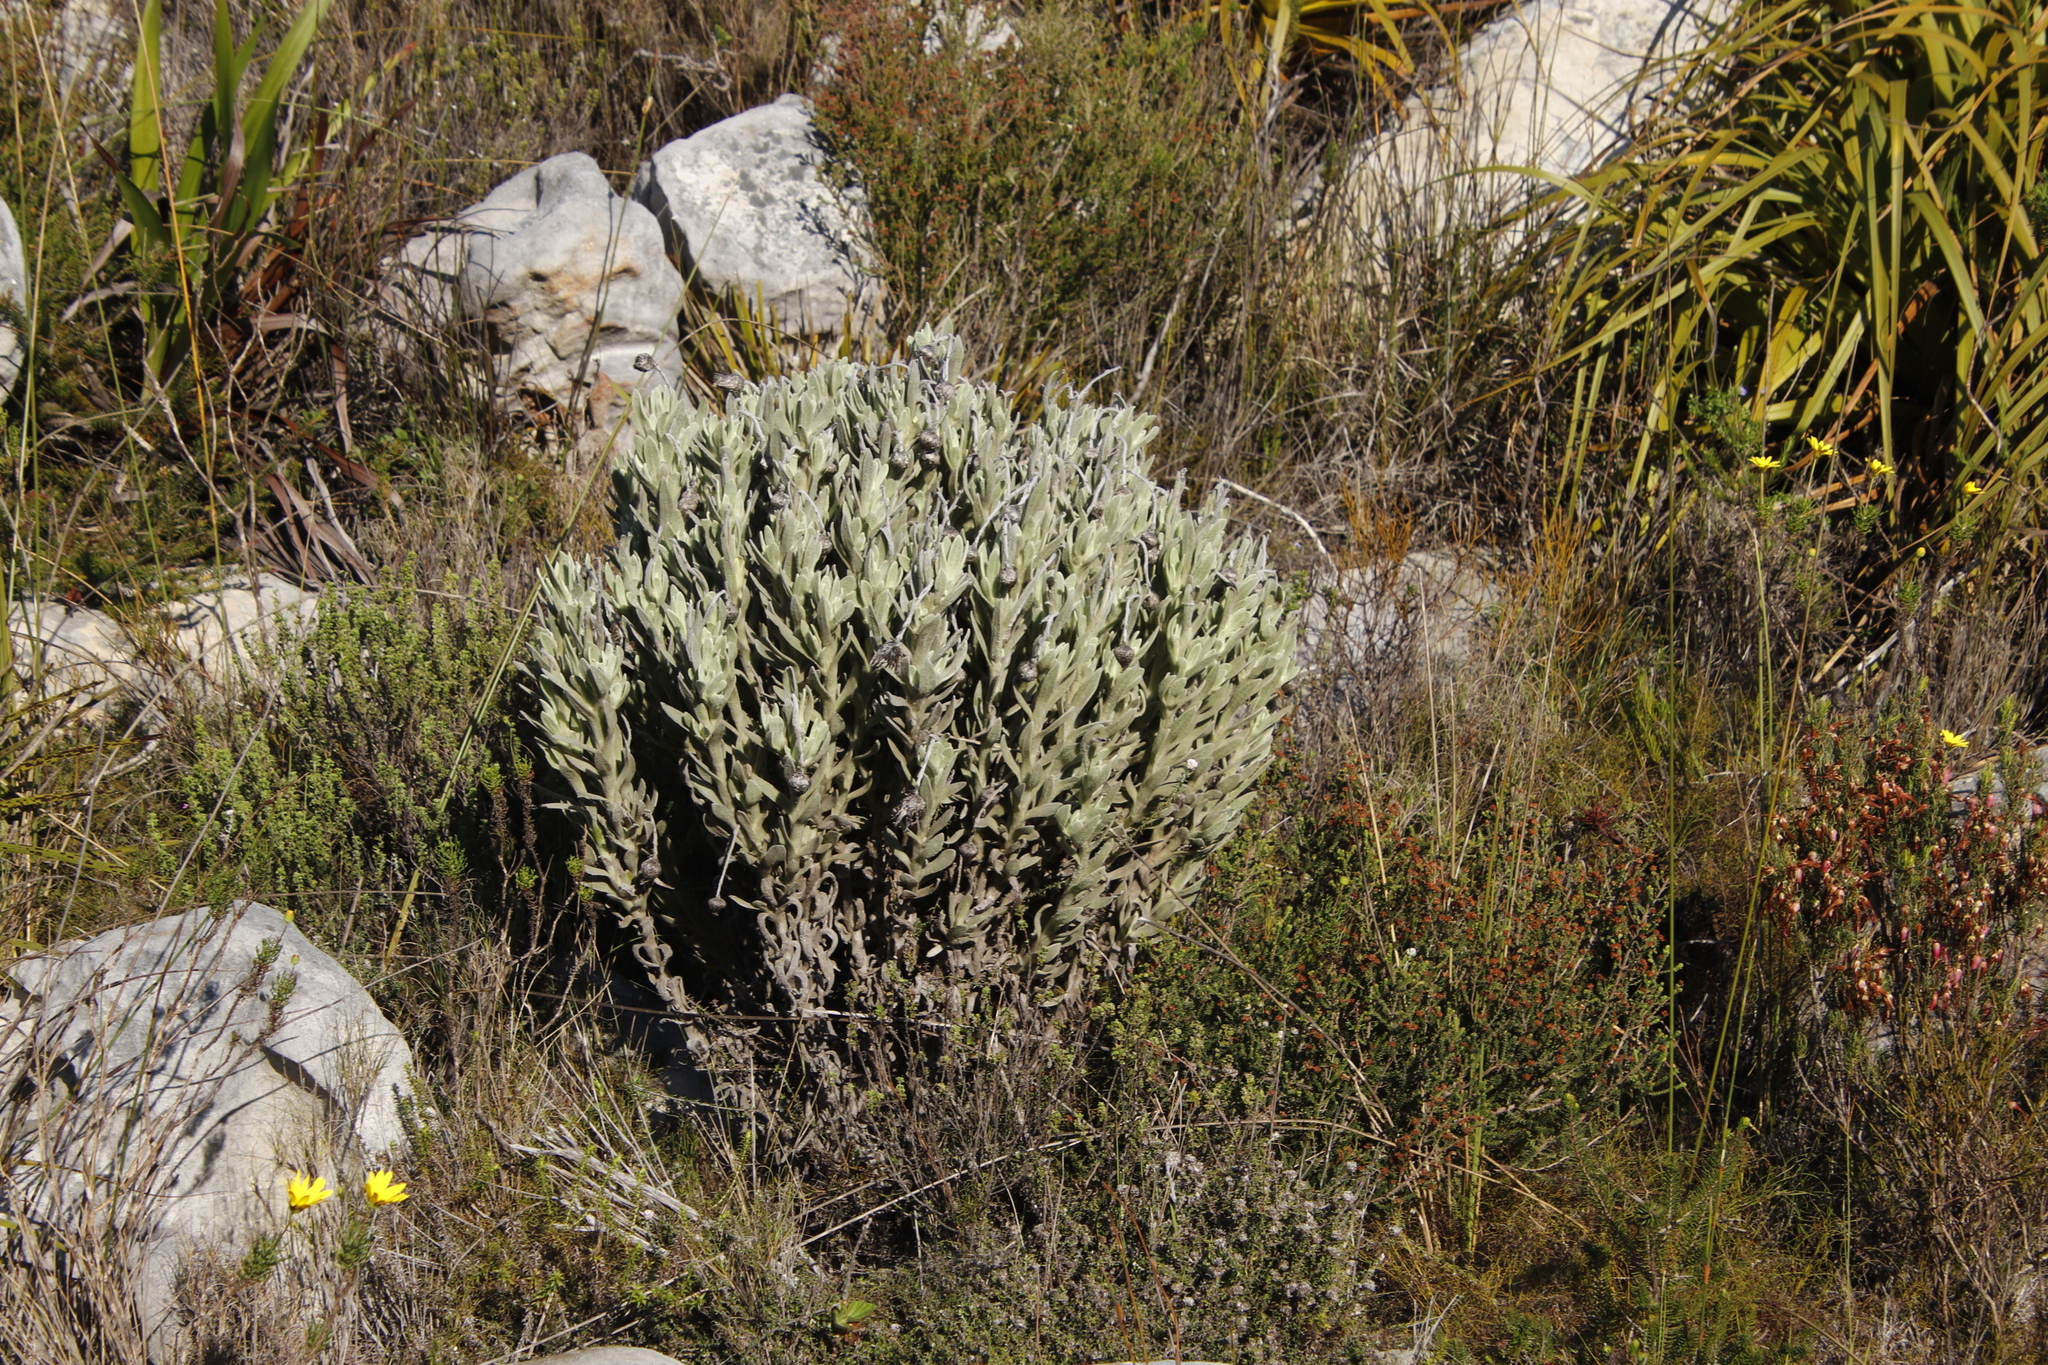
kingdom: Plantae
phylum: Tracheophyta
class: Magnoliopsida
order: Asterales
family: Asteraceae
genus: Syncarpha
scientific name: Syncarpha vestita
